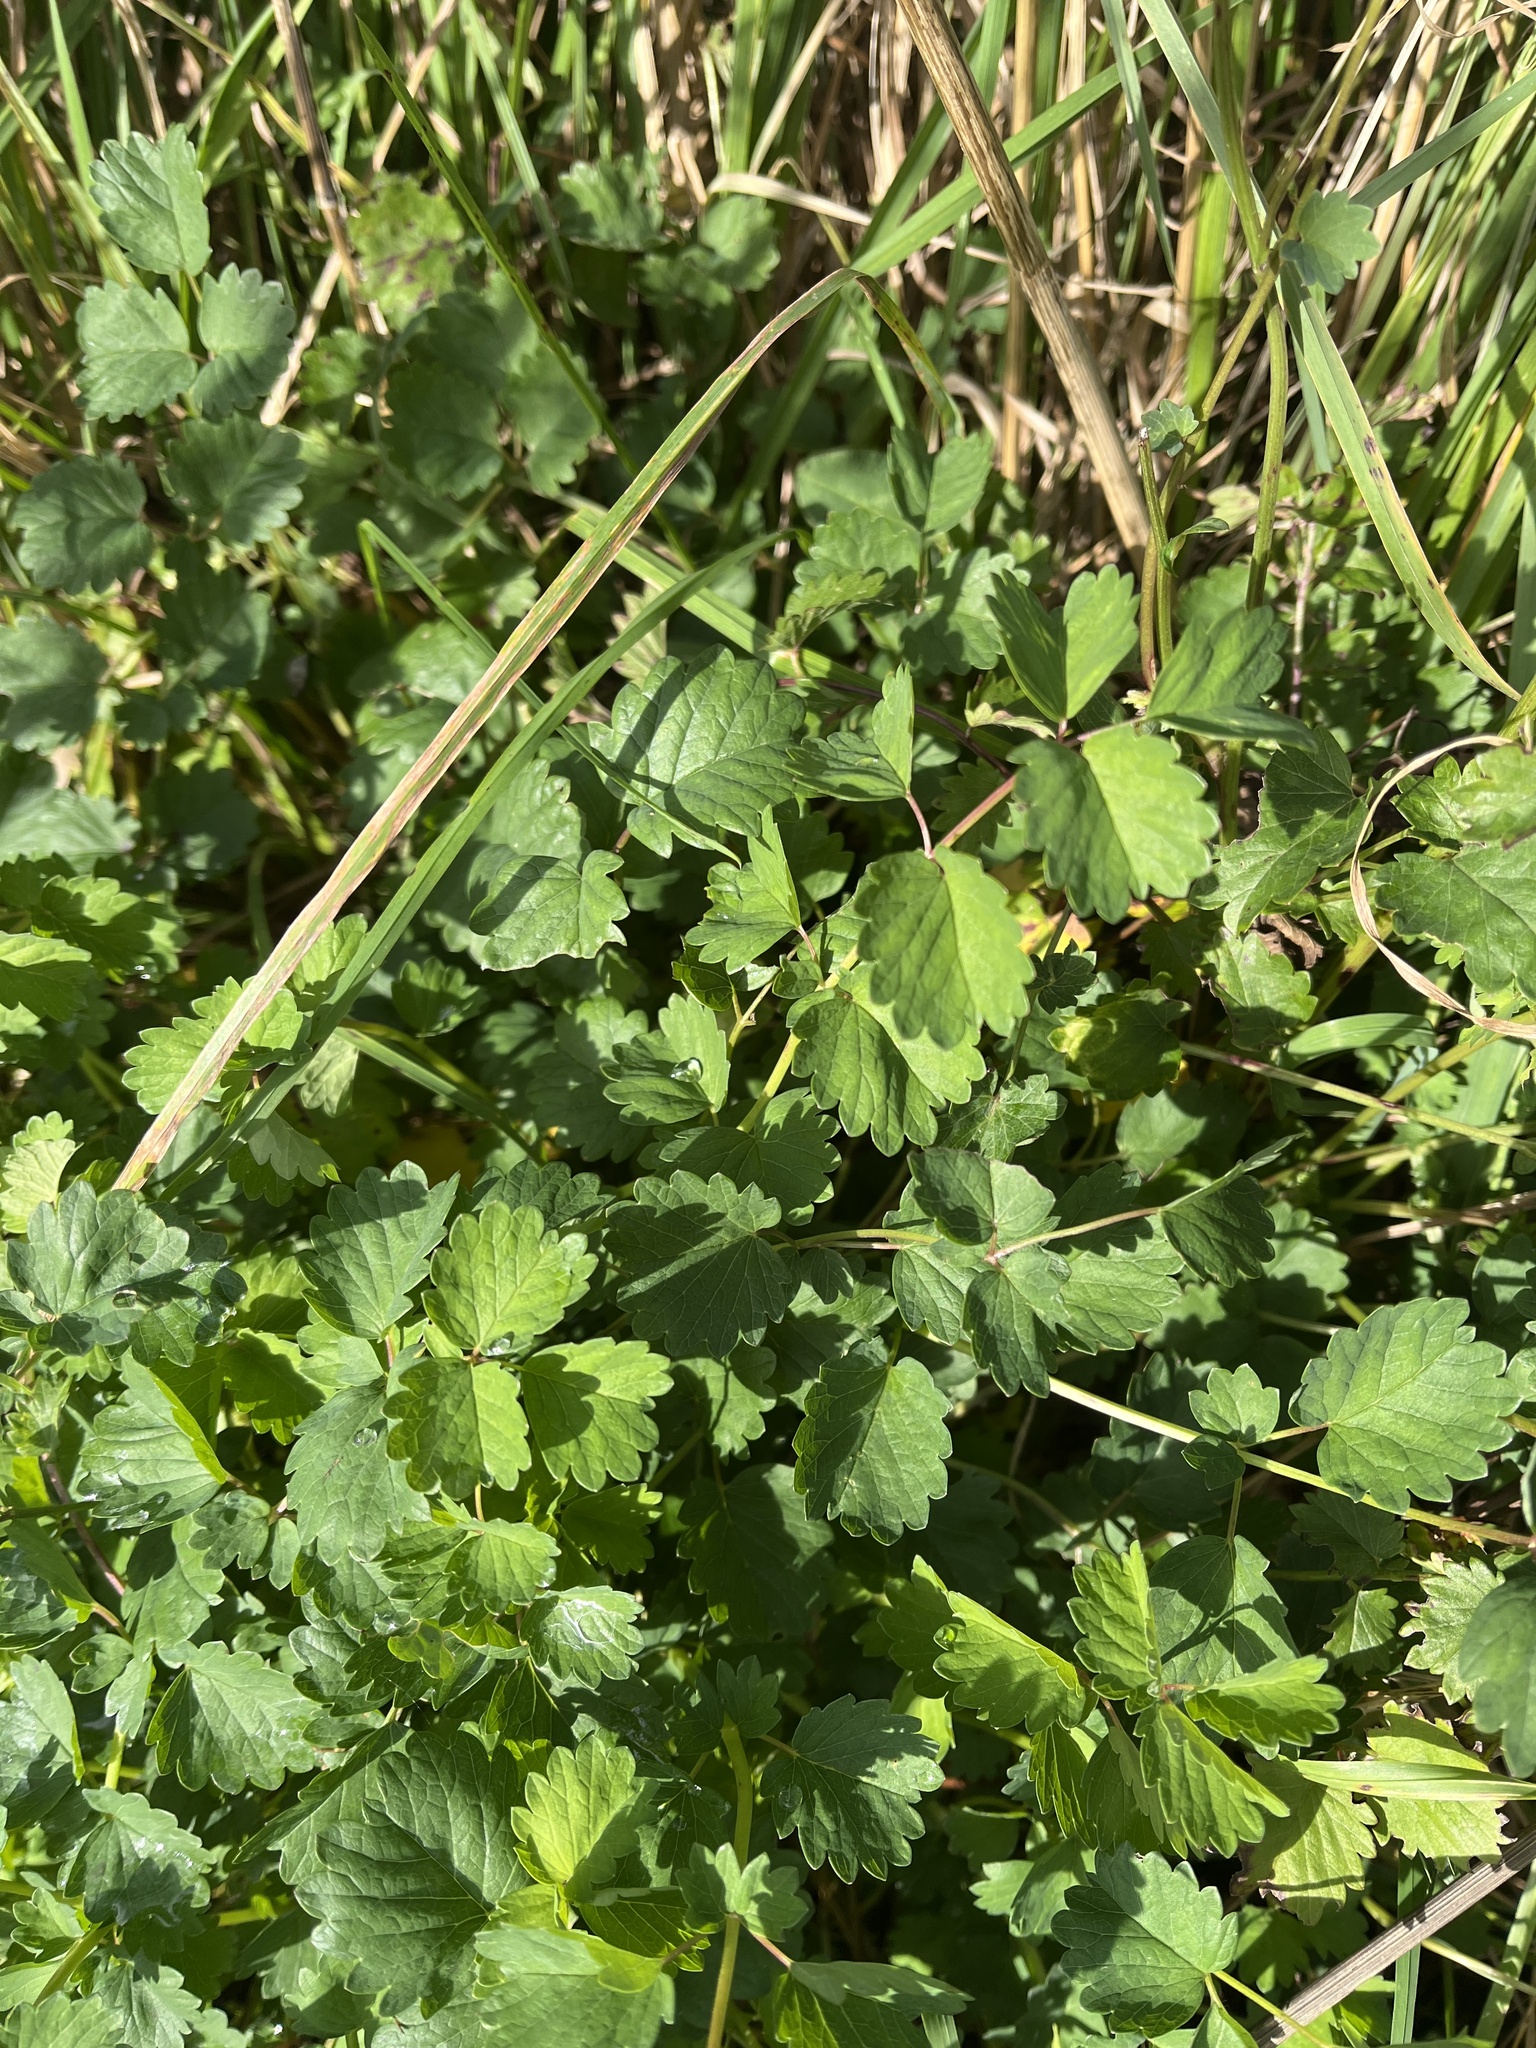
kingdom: Plantae
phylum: Tracheophyta
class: Magnoliopsida
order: Rosales
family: Rosaceae
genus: Poterium
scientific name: Poterium sanguisorba
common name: Salad burnet
